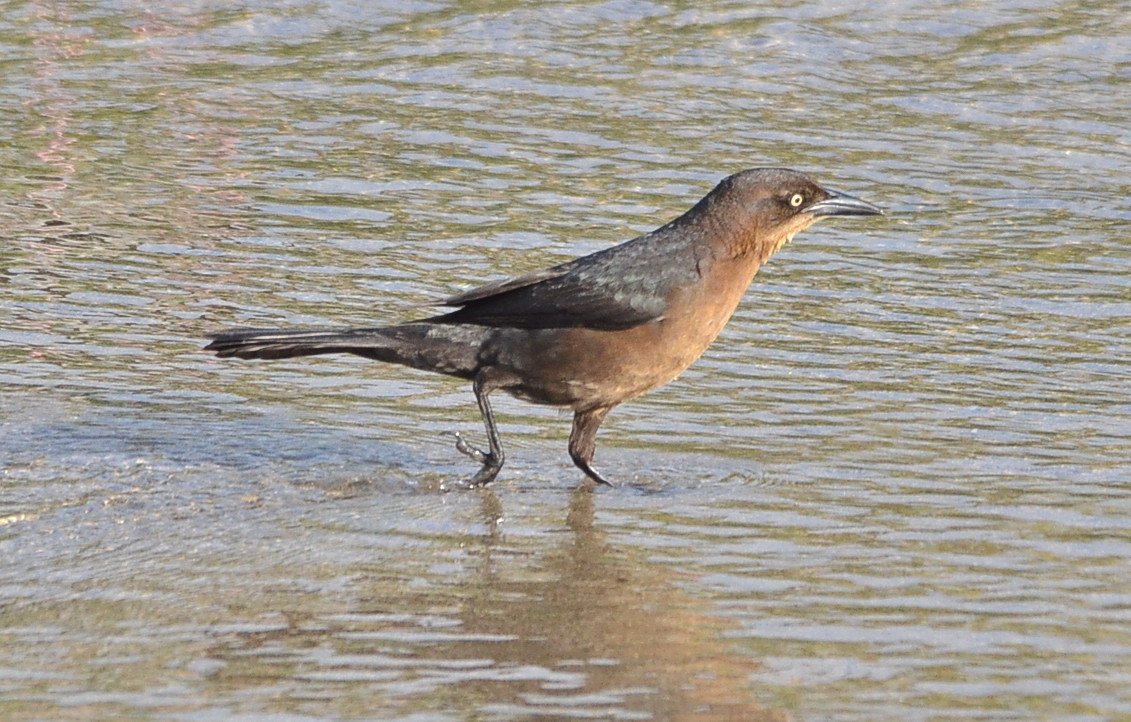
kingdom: Animalia
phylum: Chordata
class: Aves
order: Passeriformes
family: Icteridae
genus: Quiscalus
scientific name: Quiscalus mexicanus
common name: Great-tailed grackle
